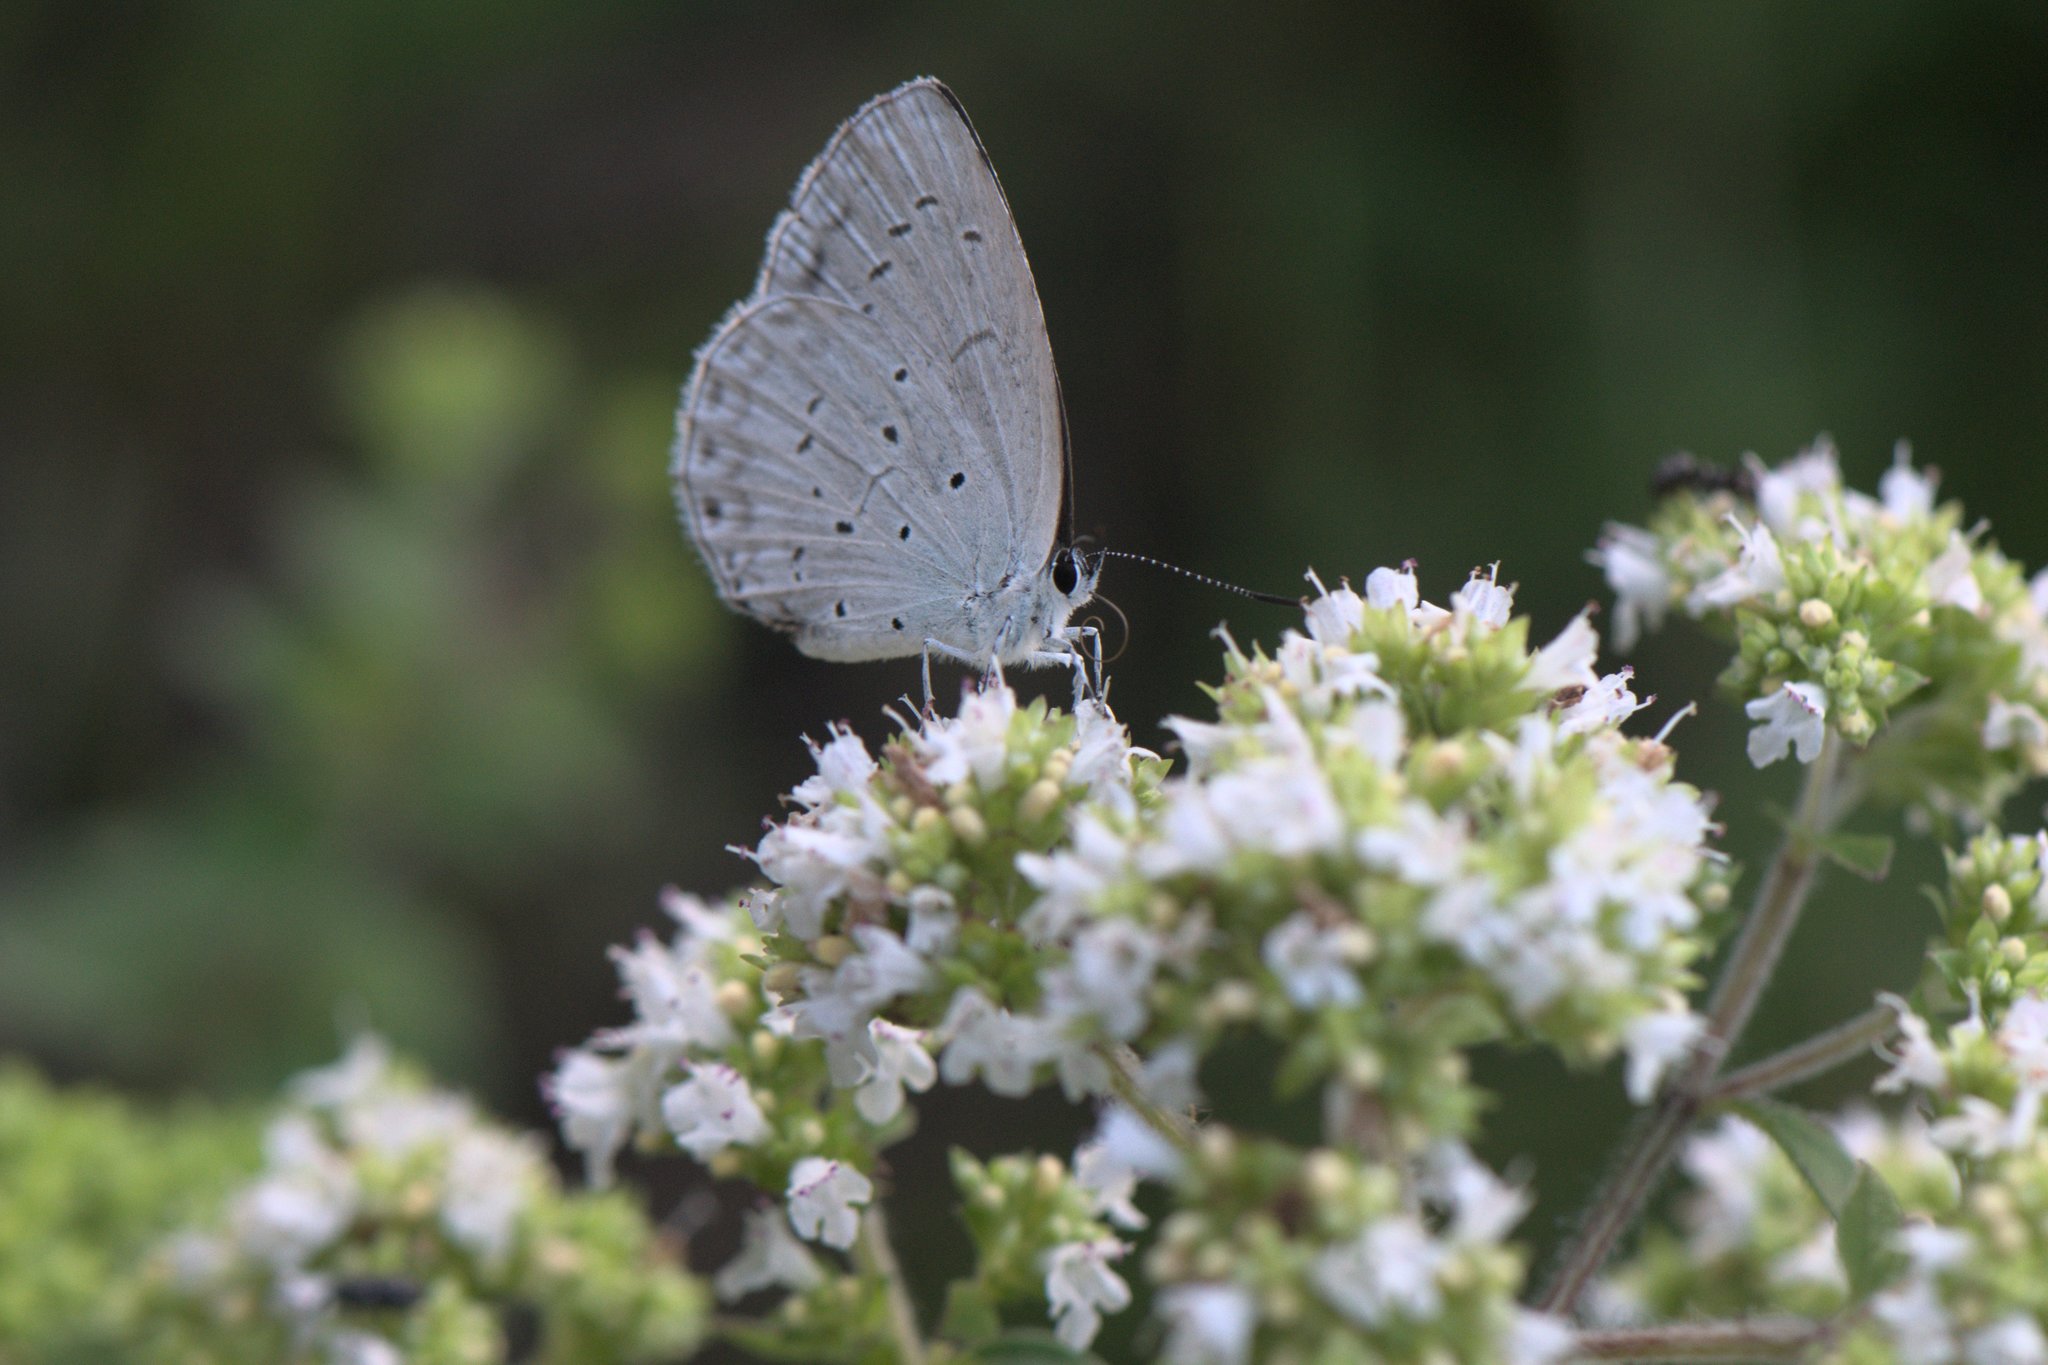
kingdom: Plantae
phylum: Tracheophyta
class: Magnoliopsida
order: Lamiales
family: Lamiaceae
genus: Origanum
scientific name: Origanum vulgare
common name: Wild marjoram
